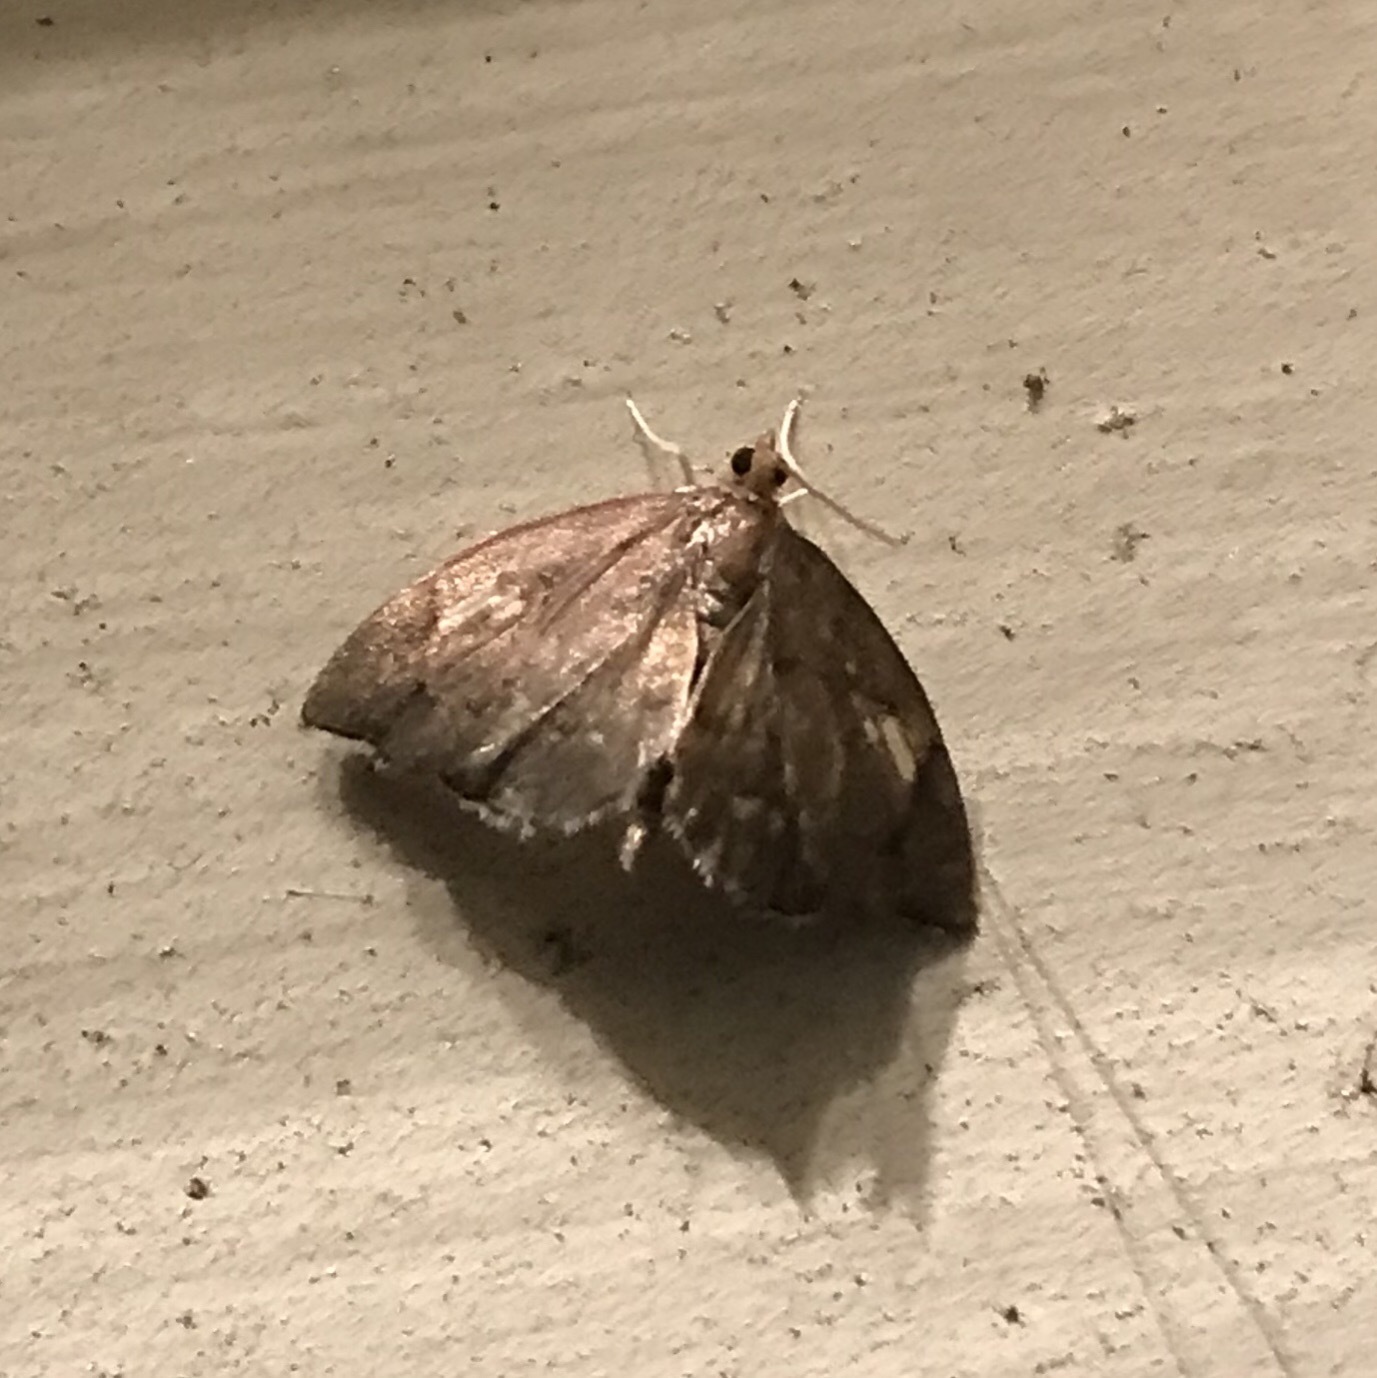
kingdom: Animalia
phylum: Arthropoda
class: Insecta
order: Lepidoptera
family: Crambidae
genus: Perispasta
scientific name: Perispasta caeculalis
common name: Titian peale's moth
